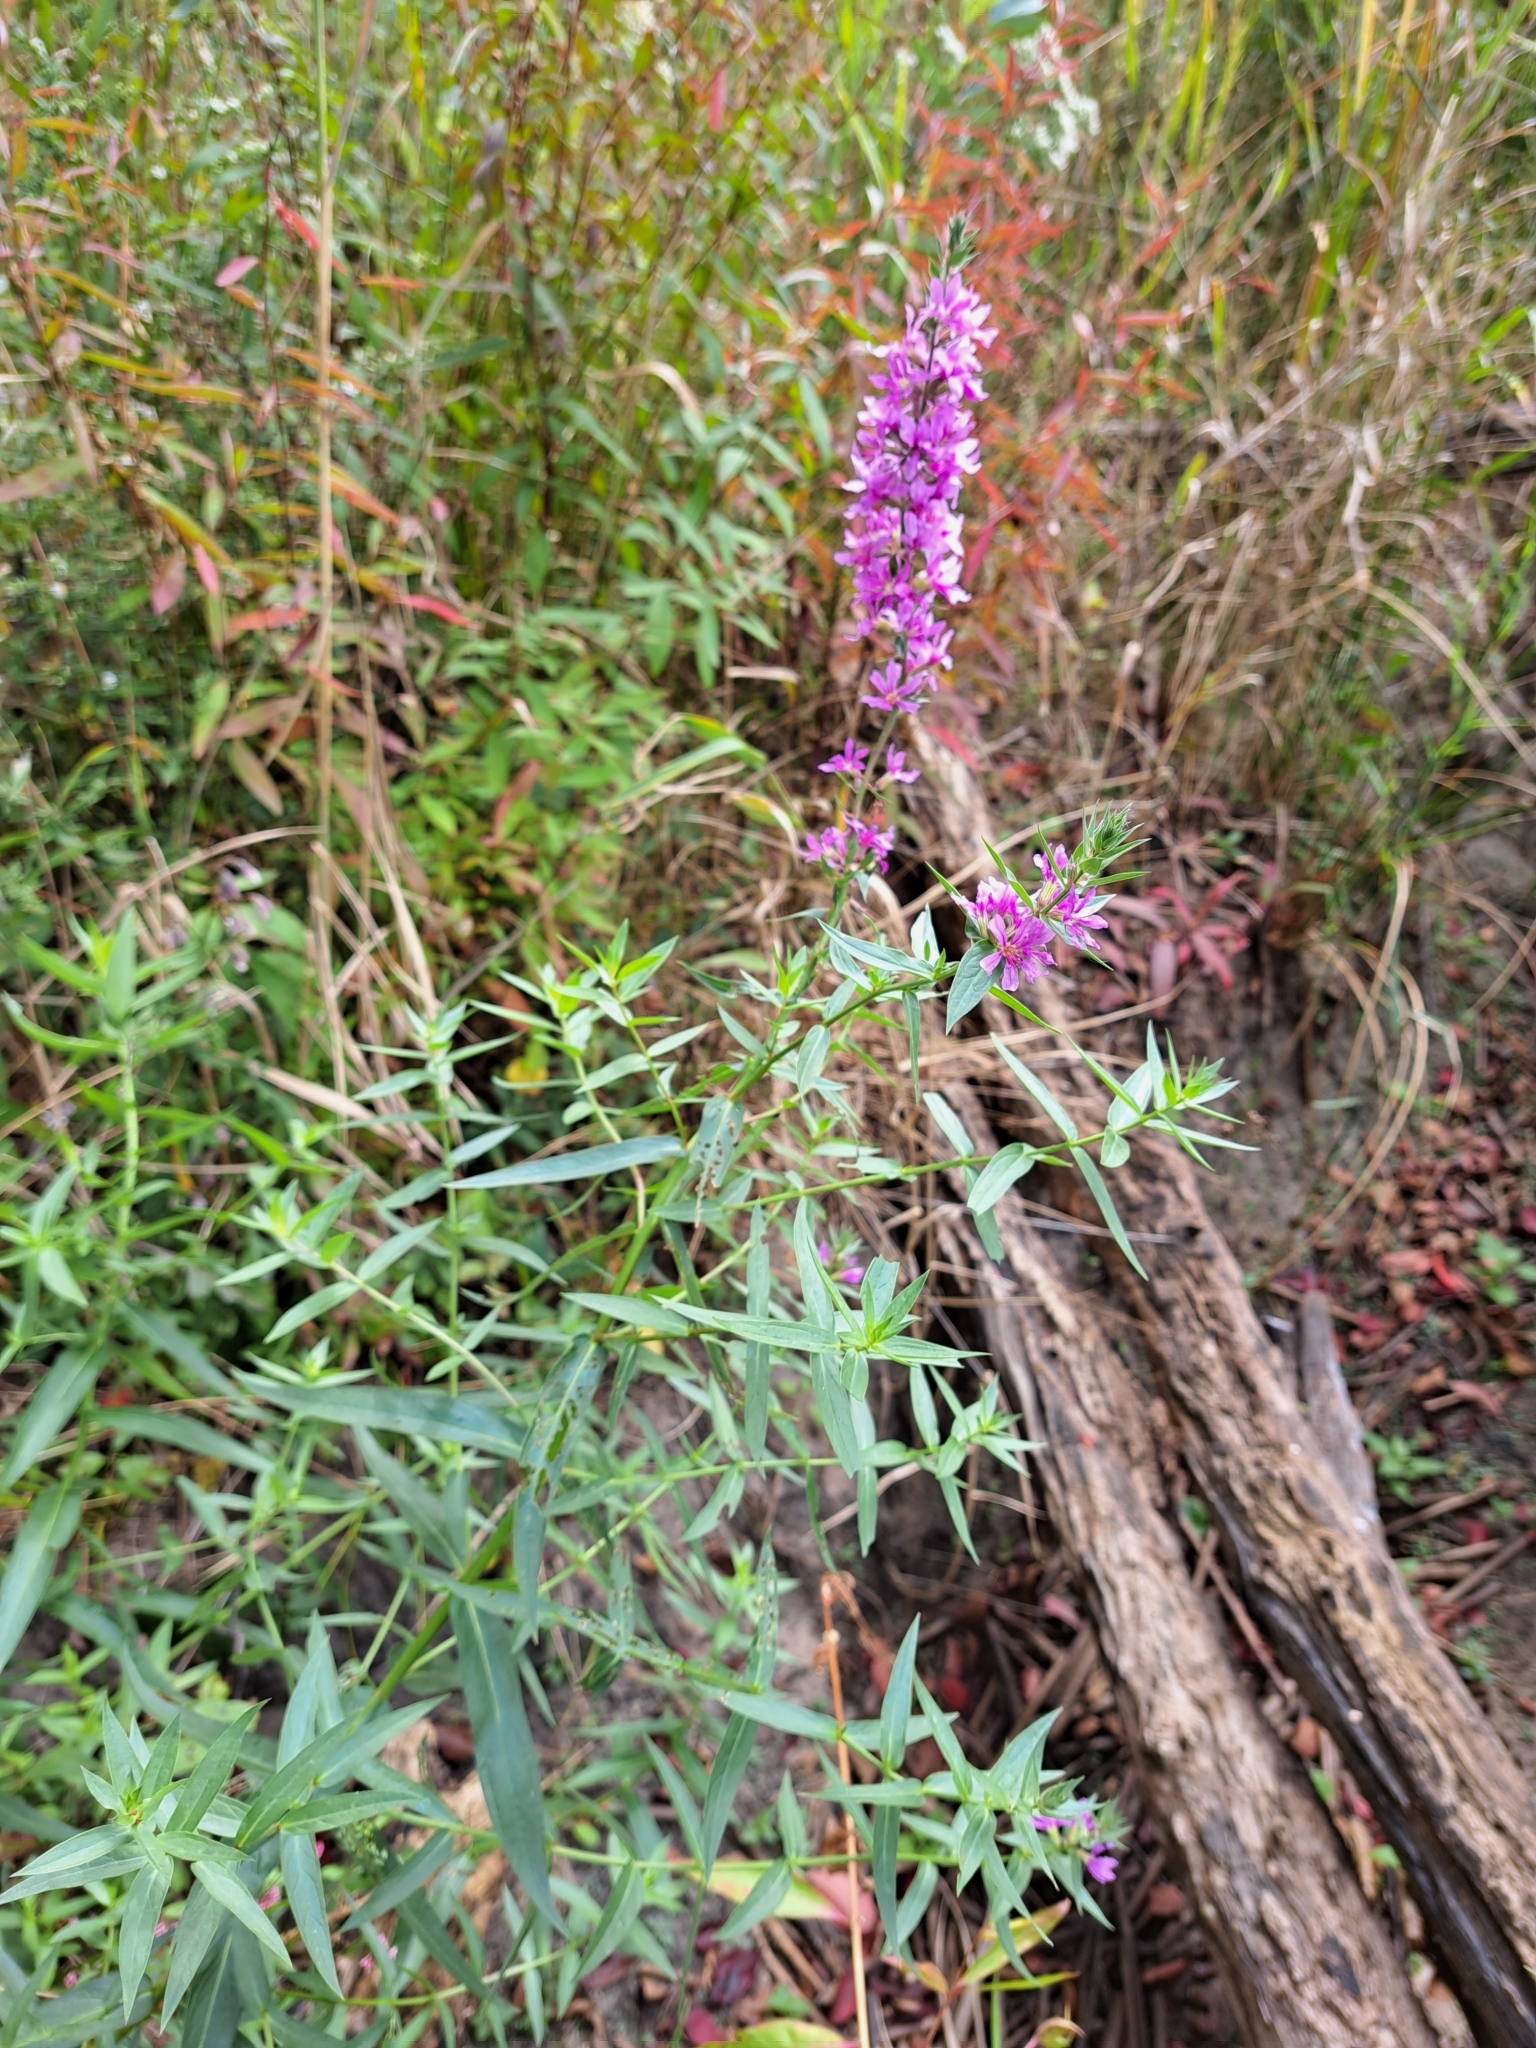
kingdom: Plantae
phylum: Tracheophyta
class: Magnoliopsida
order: Myrtales
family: Lythraceae
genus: Lythrum
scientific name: Lythrum salicaria
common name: Purple loosestrife
